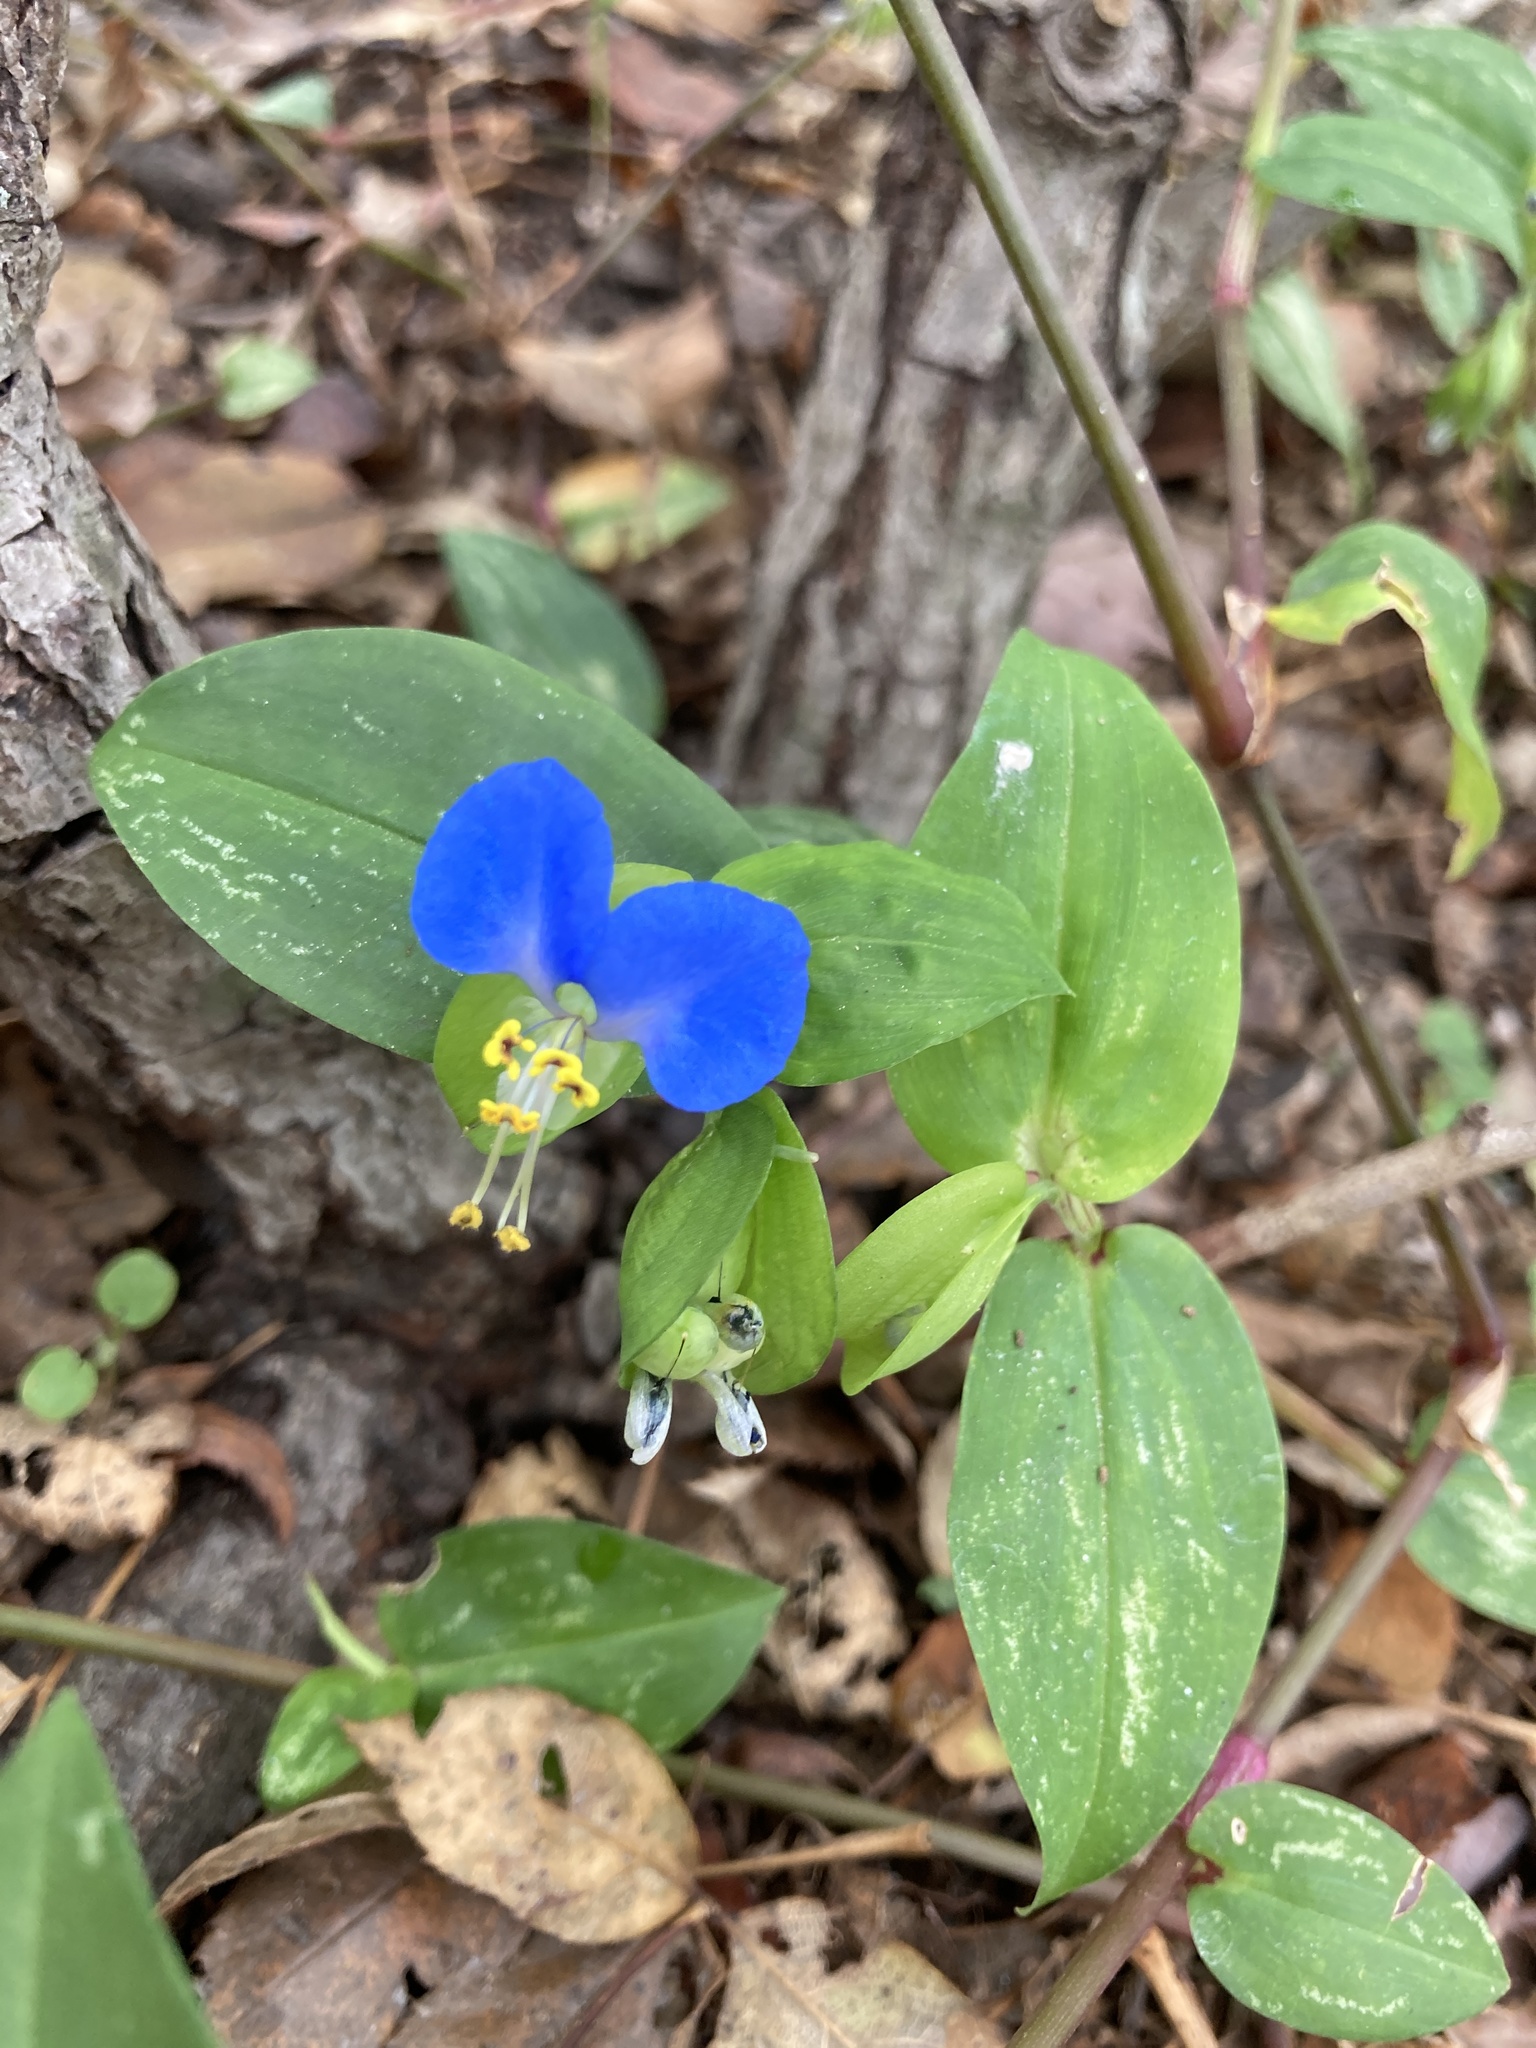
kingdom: Plantae
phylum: Tracheophyta
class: Liliopsida
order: Commelinales
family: Commelinaceae
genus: Commelina
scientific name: Commelina communis
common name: Asiatic dayflower
